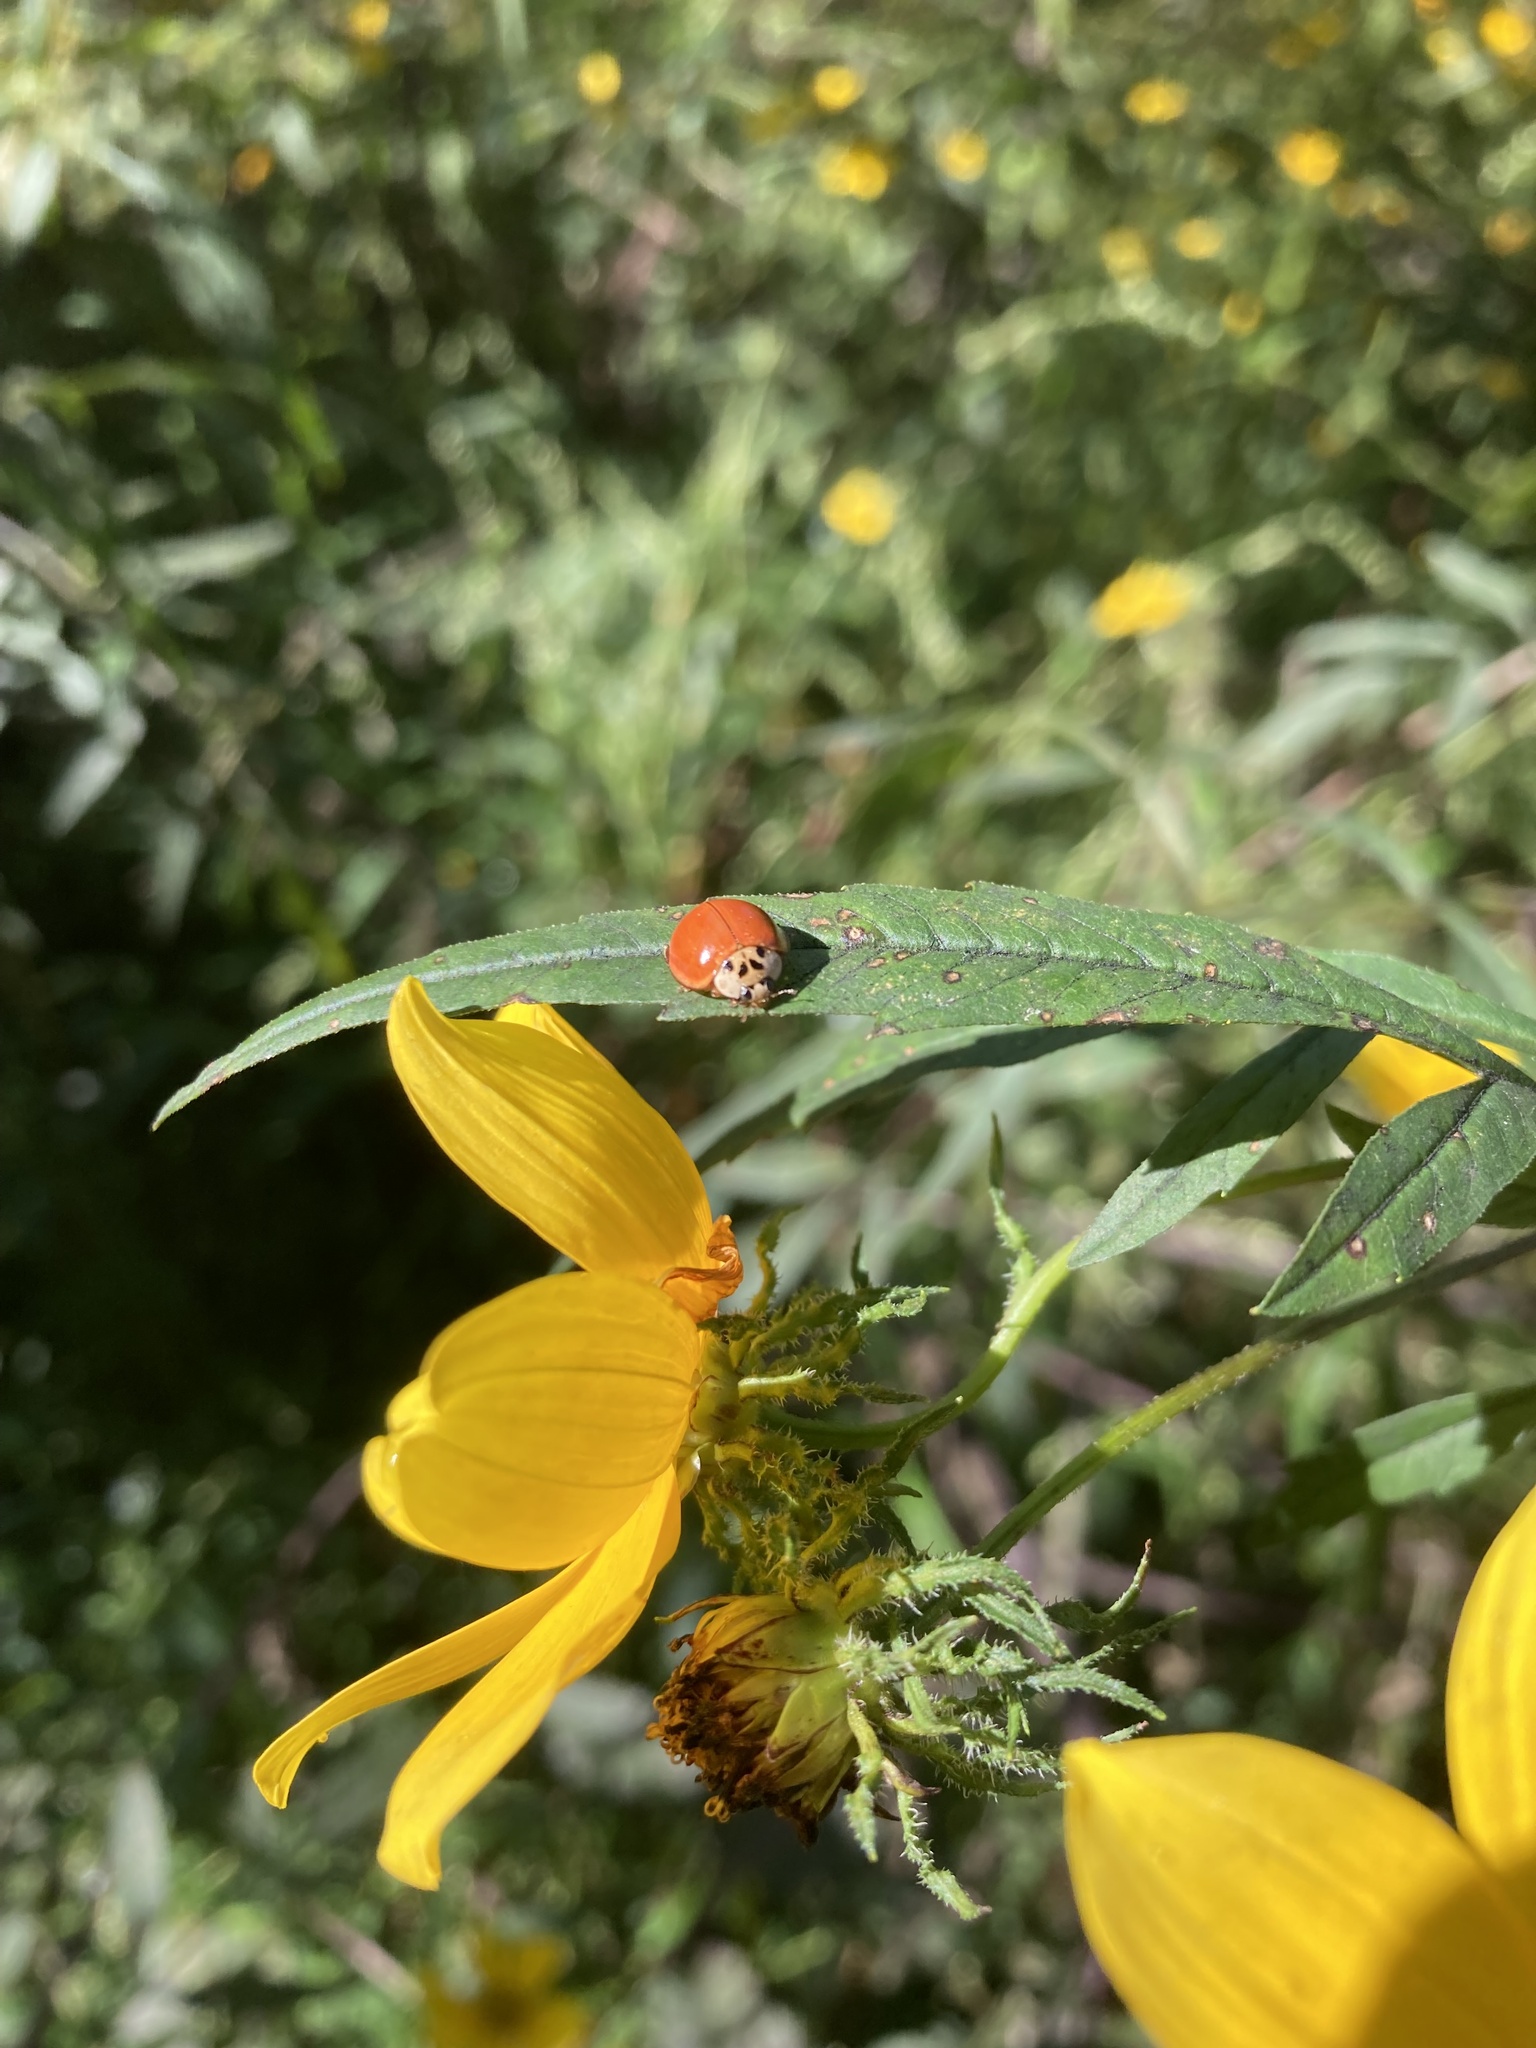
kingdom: Animalia
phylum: Arthropoda
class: Insecta
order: Coleoptera
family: Coccinellidae
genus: Harmonia
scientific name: Harmonia axyridis
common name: Harlequin ladybird
